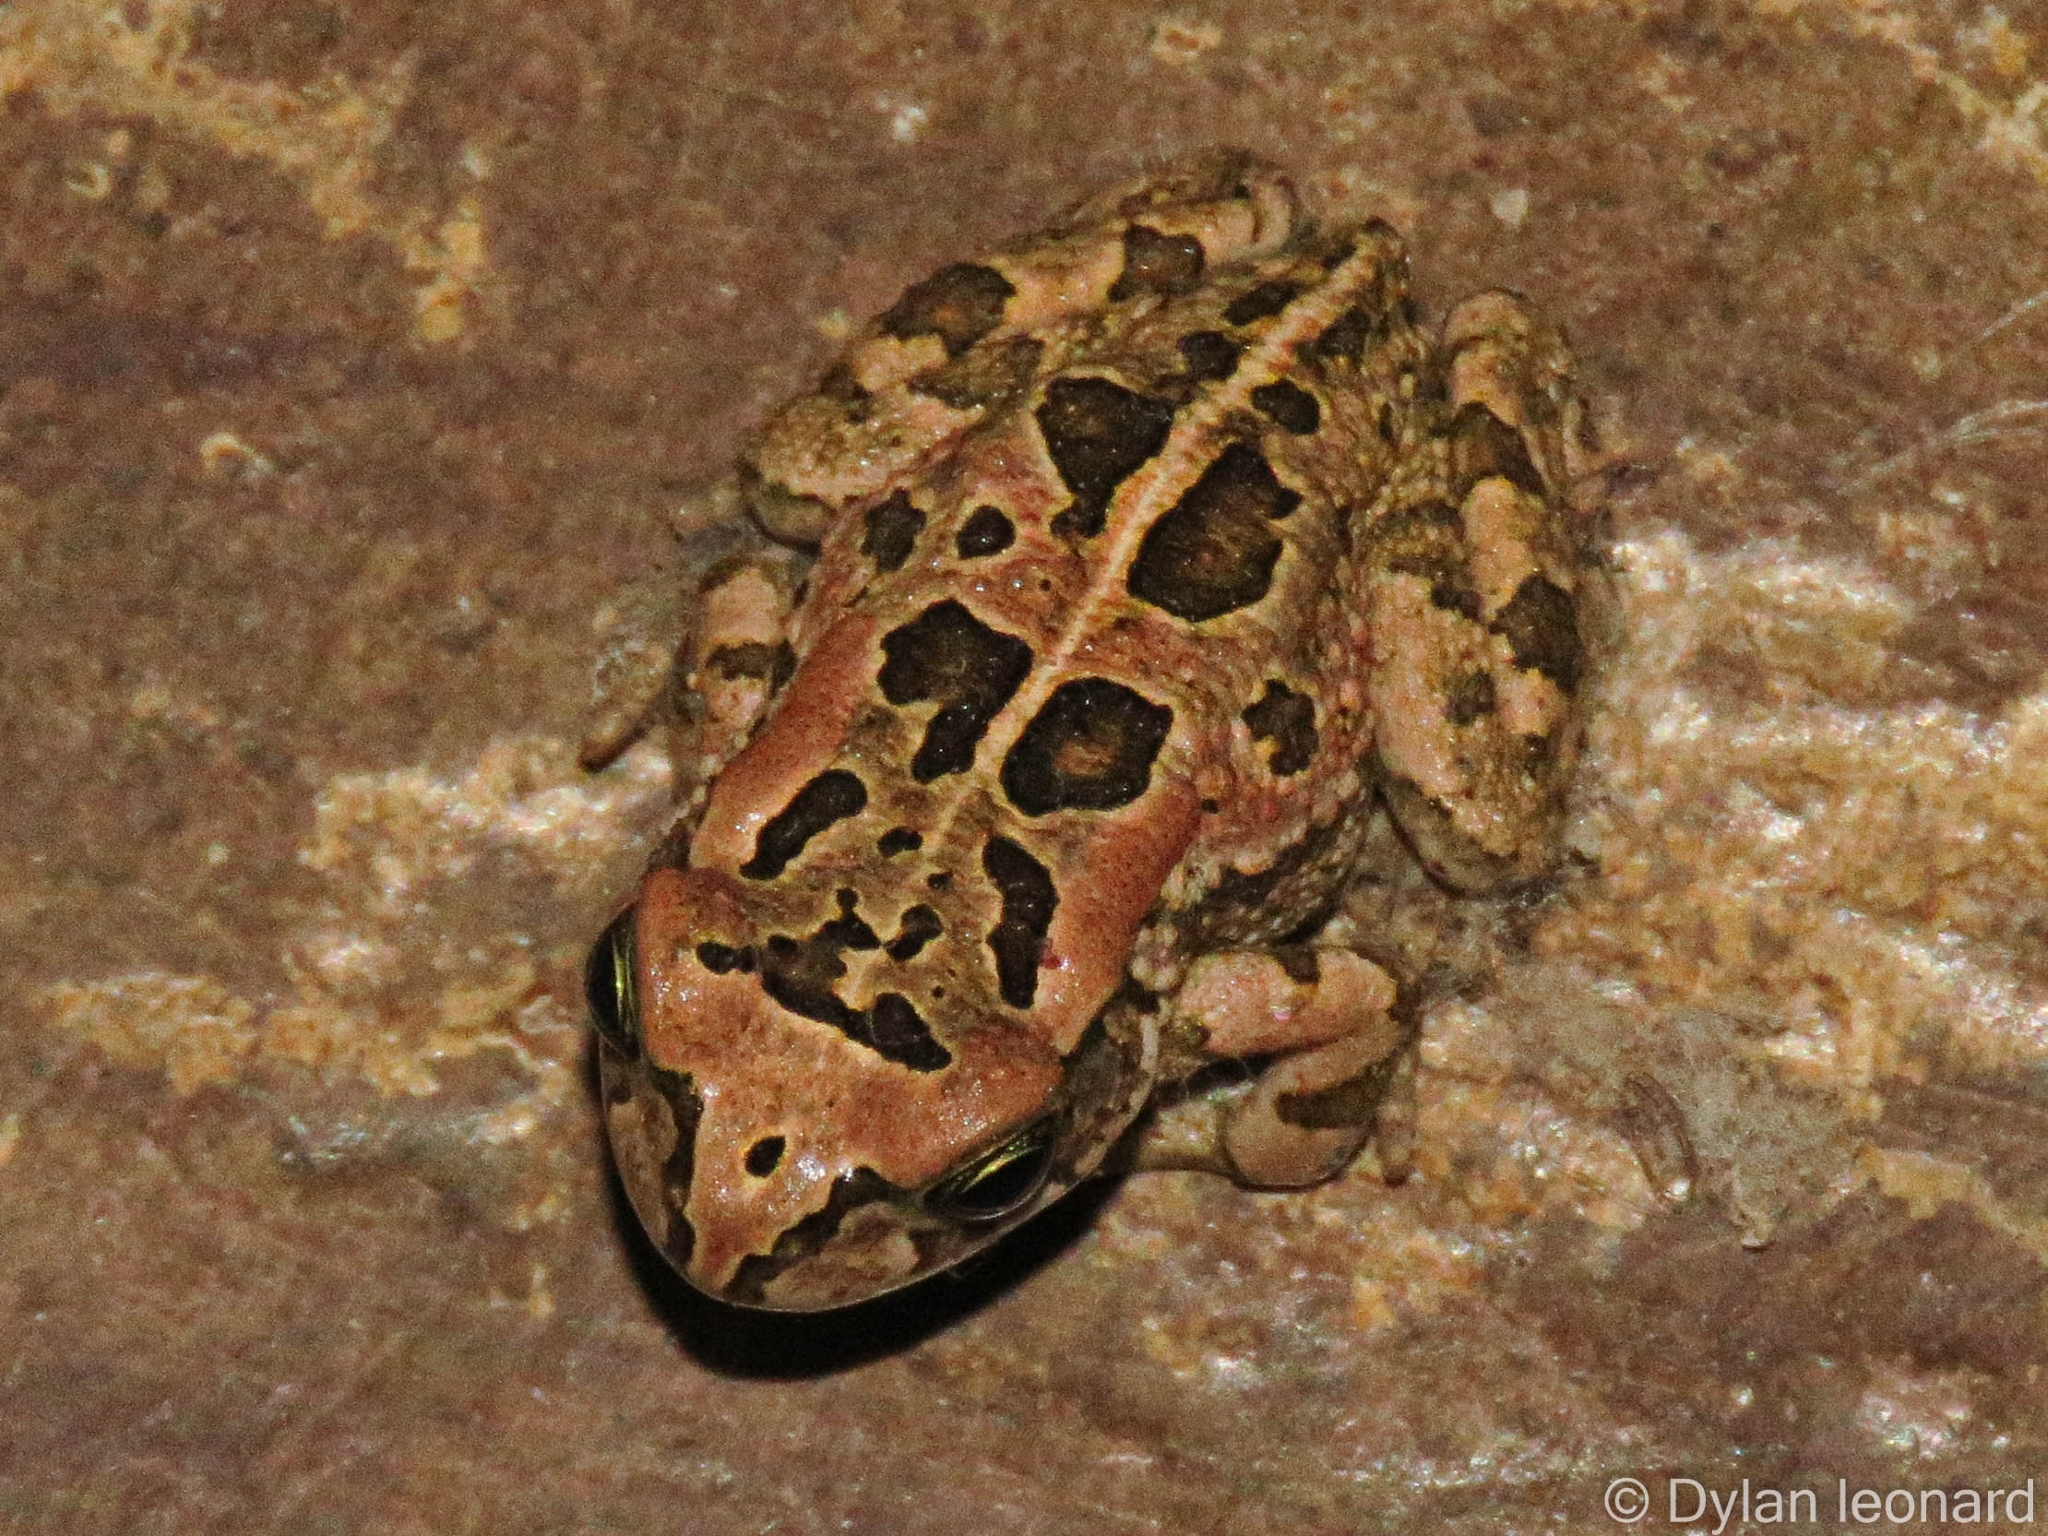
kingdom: Animalia
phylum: Chordata
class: Amphibia
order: Anura
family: Bufonidae
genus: Sclerophrys
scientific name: Sclerophrys capensis
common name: Ranger’s toad
